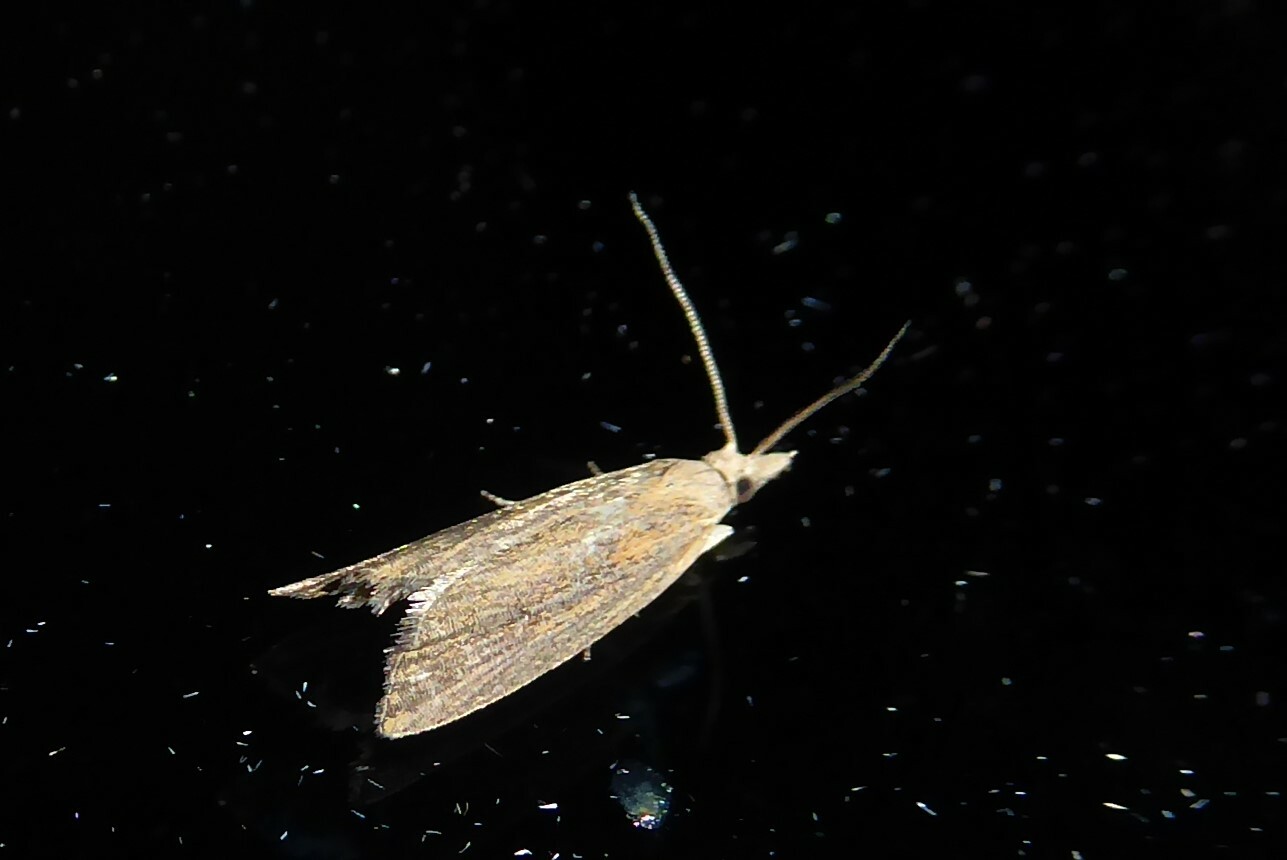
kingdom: Animalia
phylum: Arthropoda
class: Insecta
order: Lepidoptera
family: Tortricidae
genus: Bactra
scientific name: Bactra noteraula
